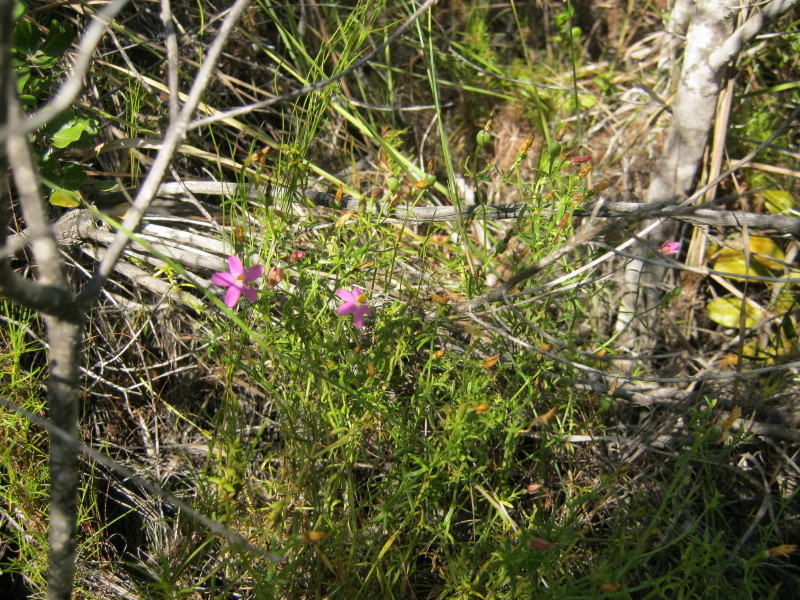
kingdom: Plantae
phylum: Tracheophyta
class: Magnoliopsida
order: Gentianales
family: Gentianaceae
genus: Chironia
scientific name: Chironia baccifera
